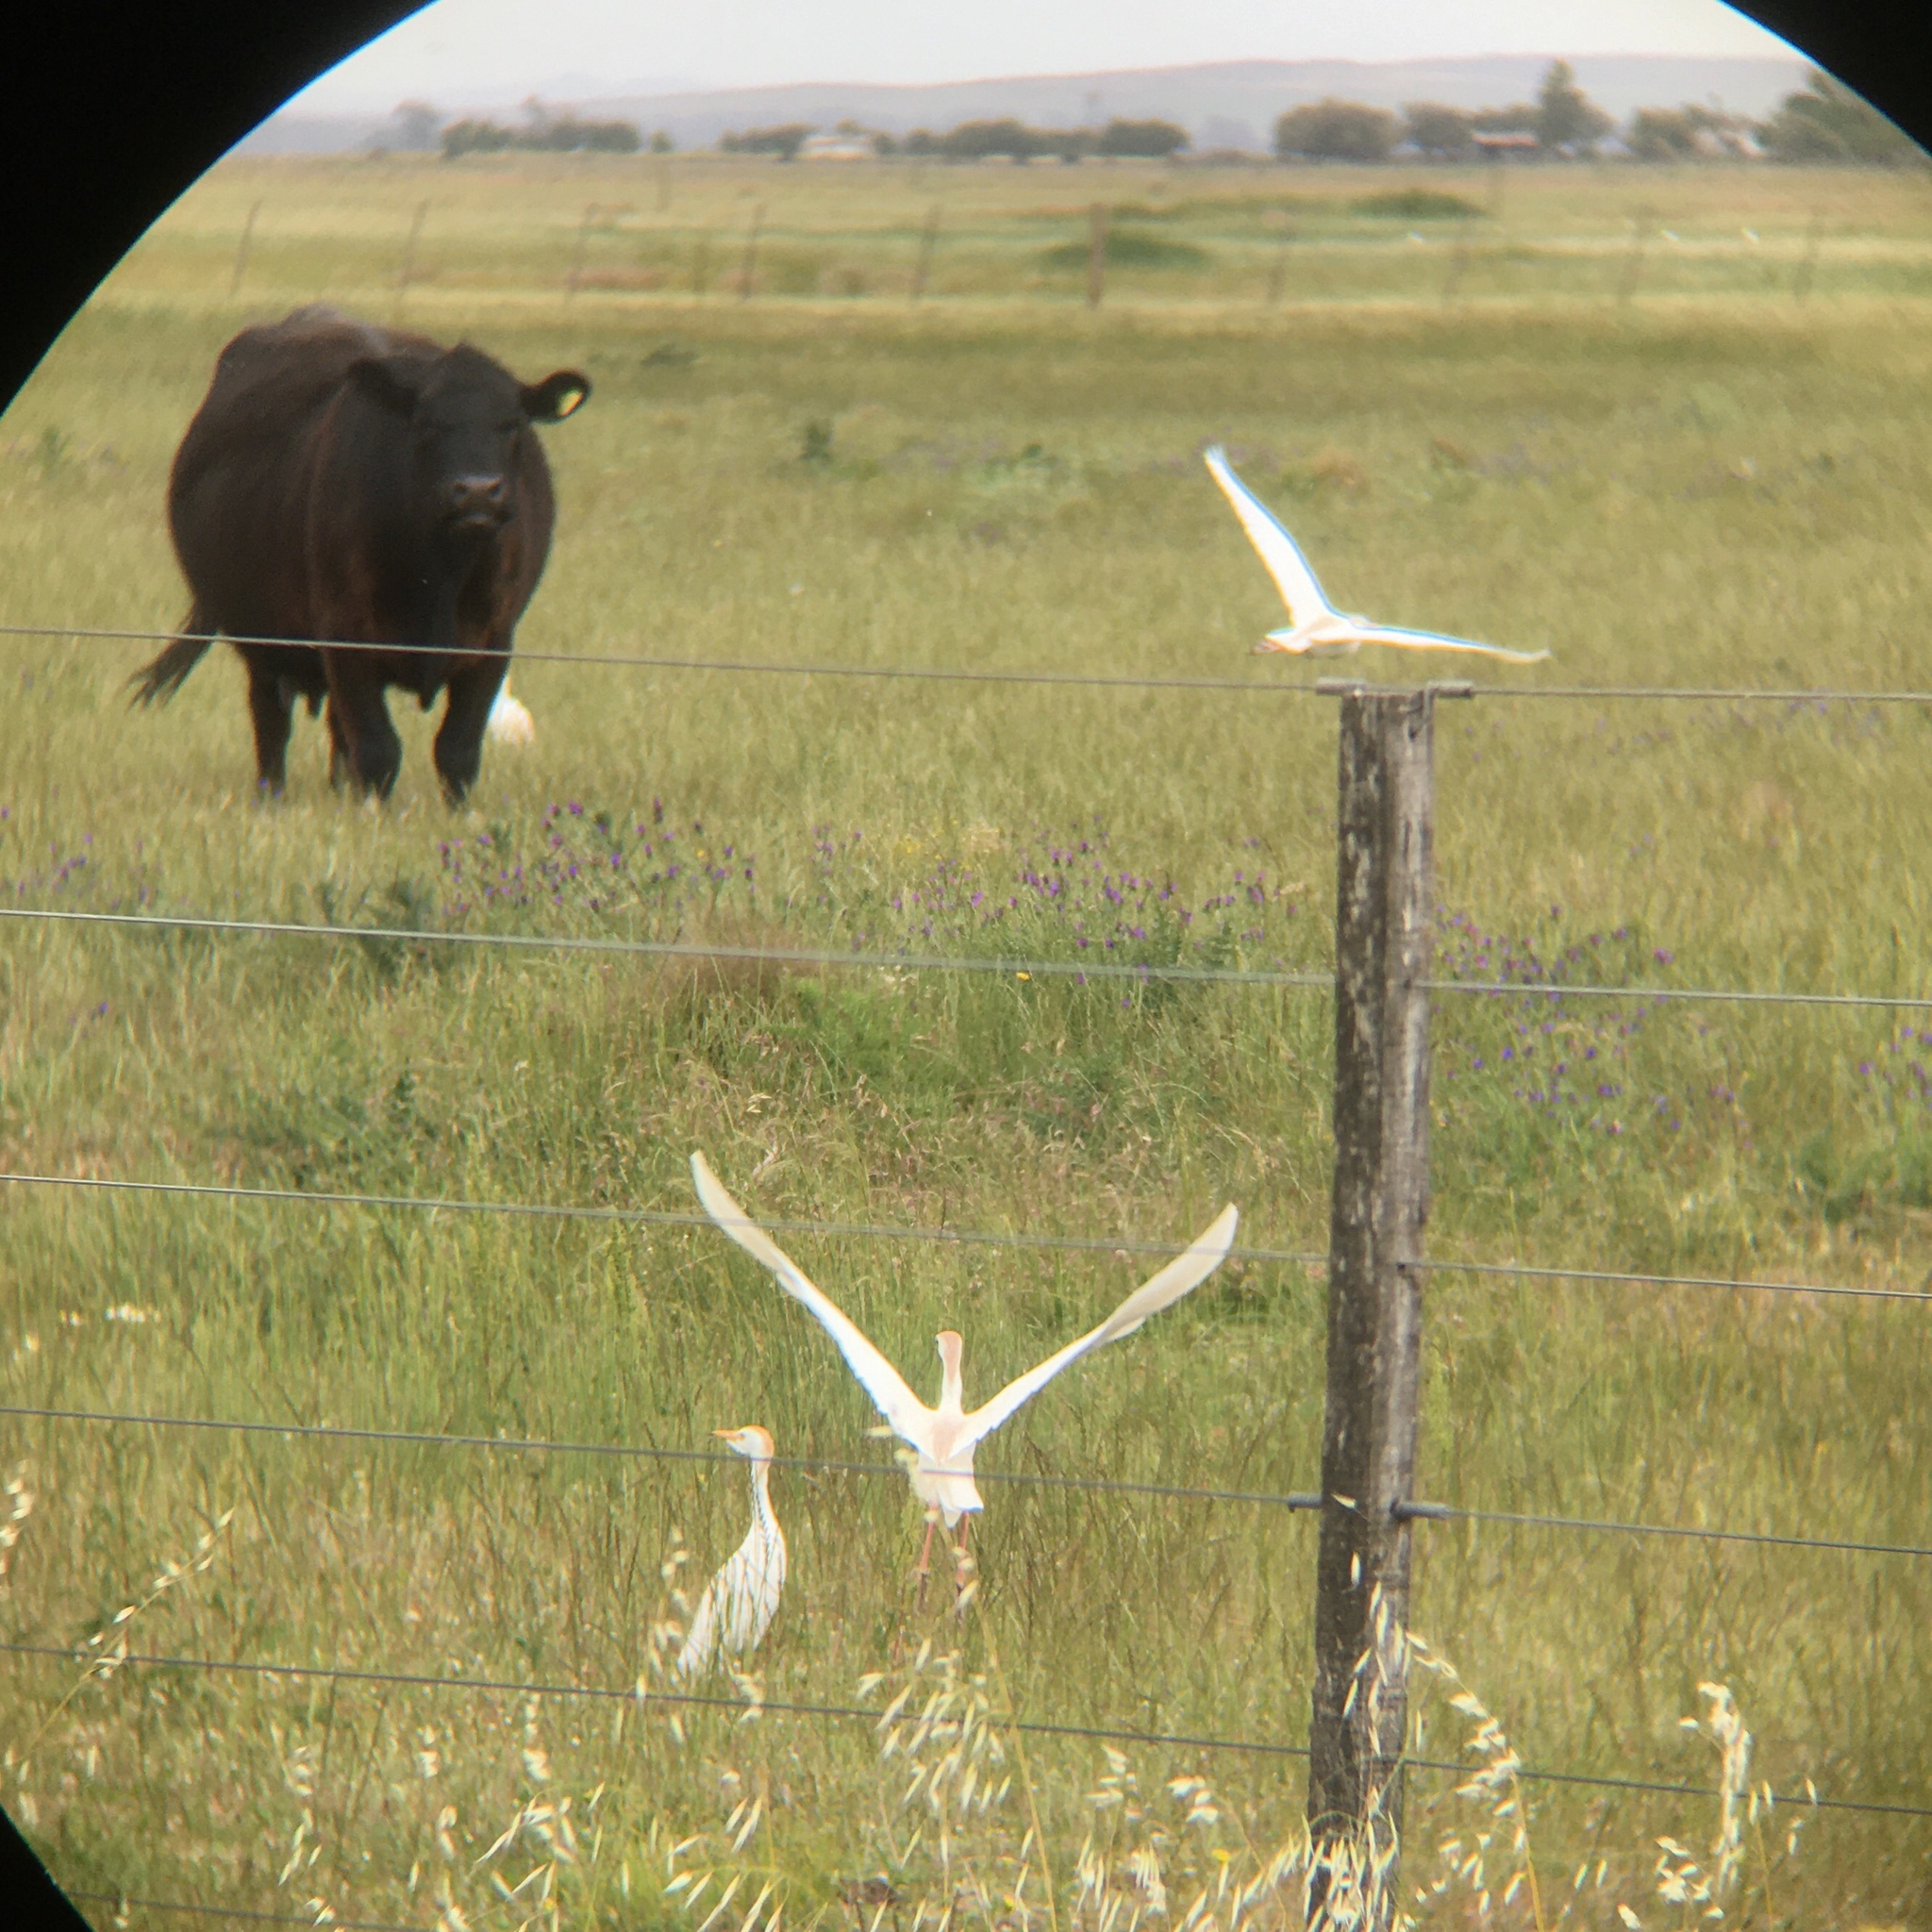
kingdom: Animalia
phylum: Chordata
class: Aves
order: Pelecaniformes
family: Ardeidae
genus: Bubulcus
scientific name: Bubulcus ibis
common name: Cattle egret
